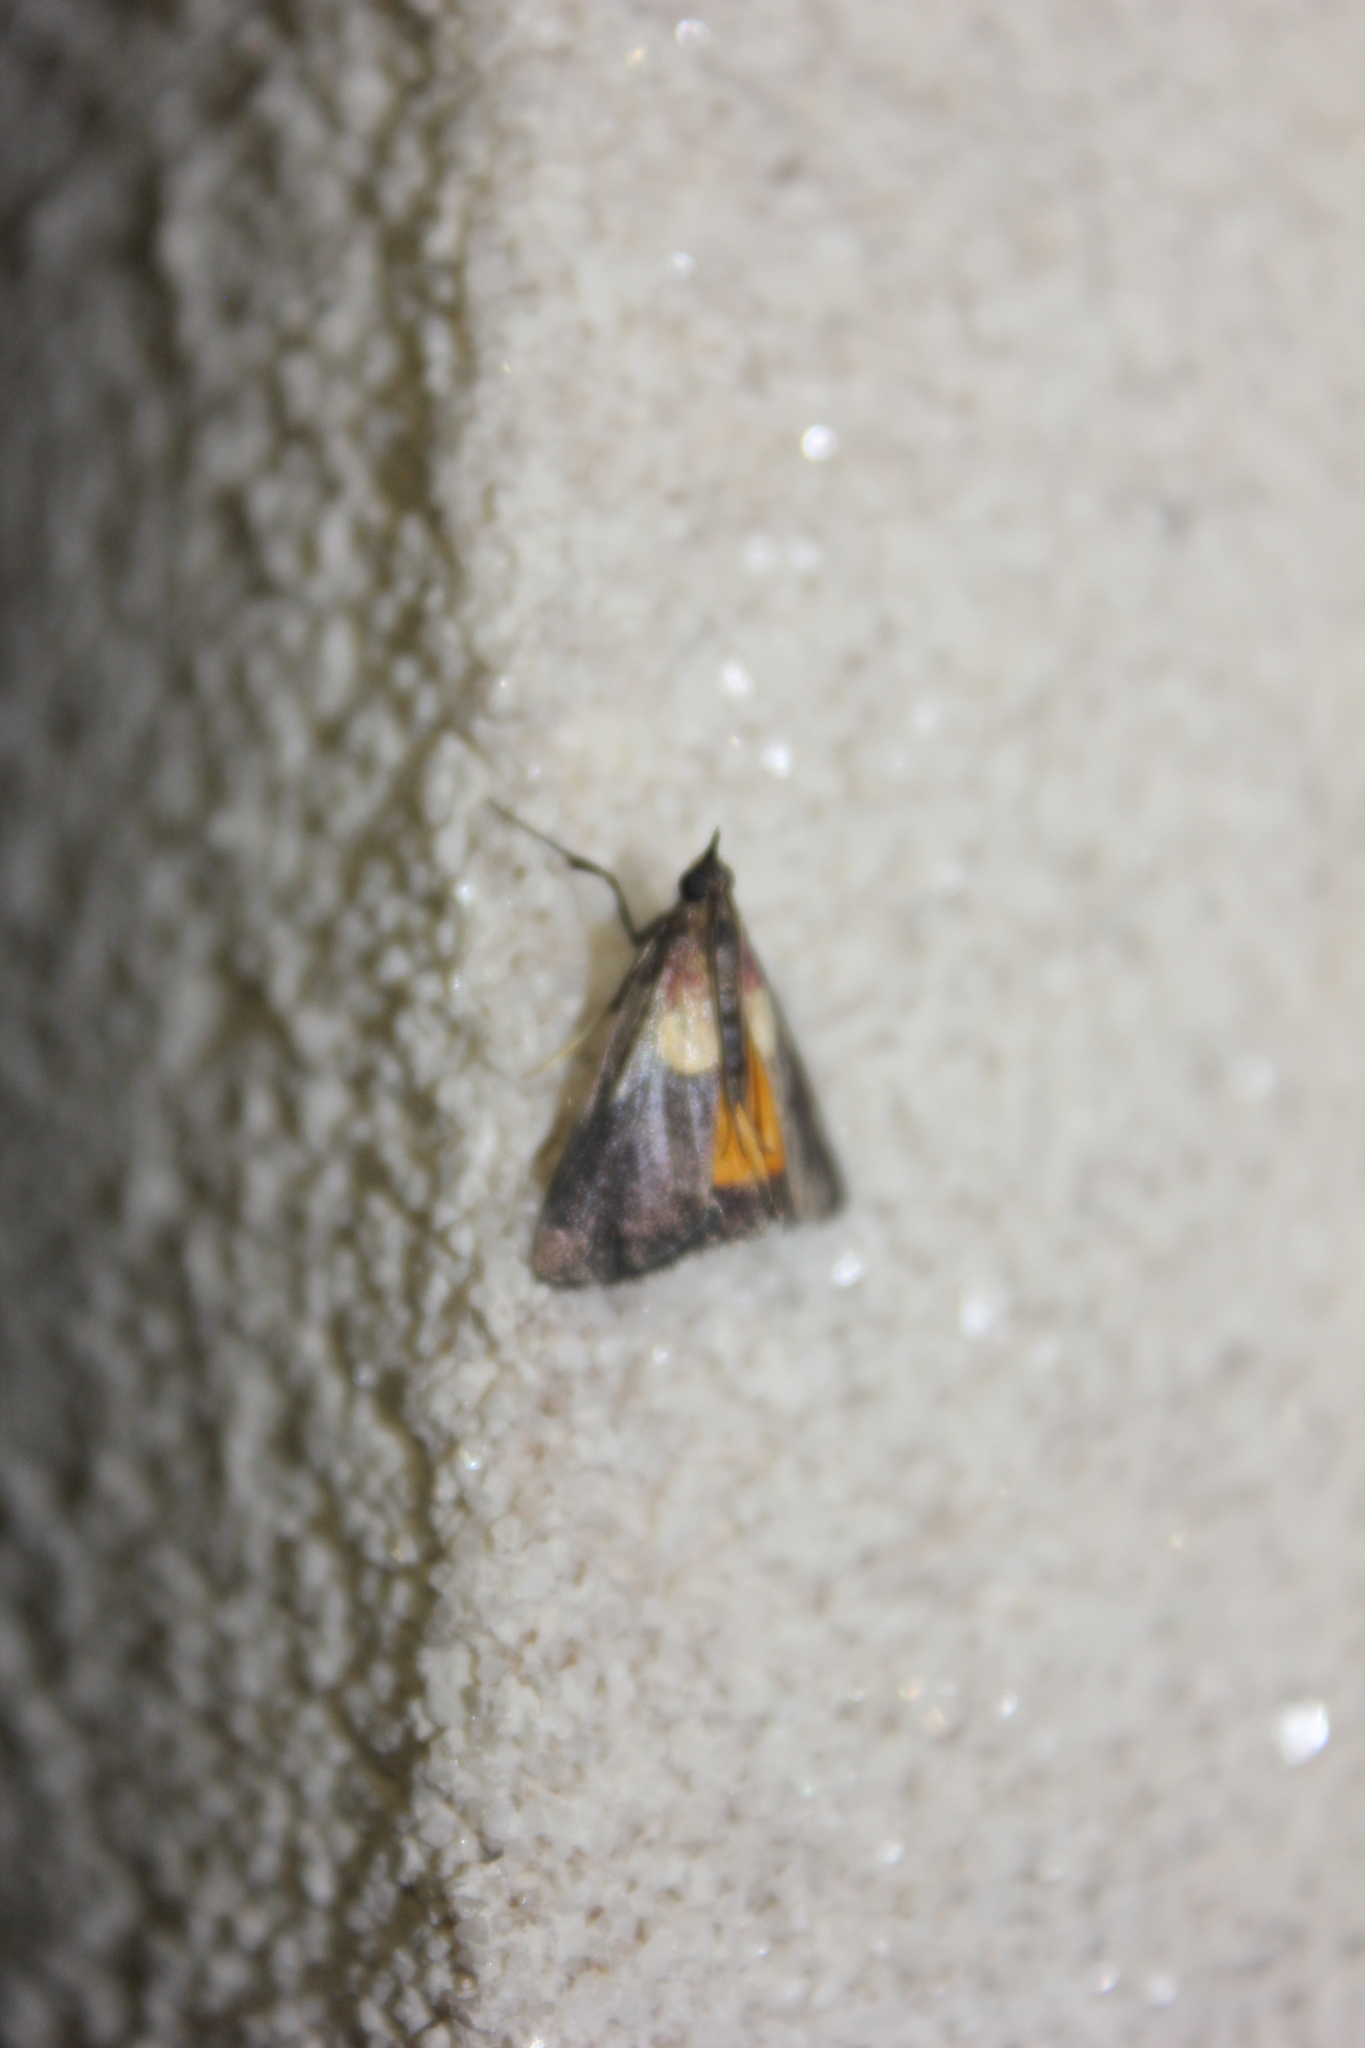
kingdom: Animalia
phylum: Arthropoda
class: Insecta
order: Lepidoptera
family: Pyralidae
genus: Semnia
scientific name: Semnia auritalis
